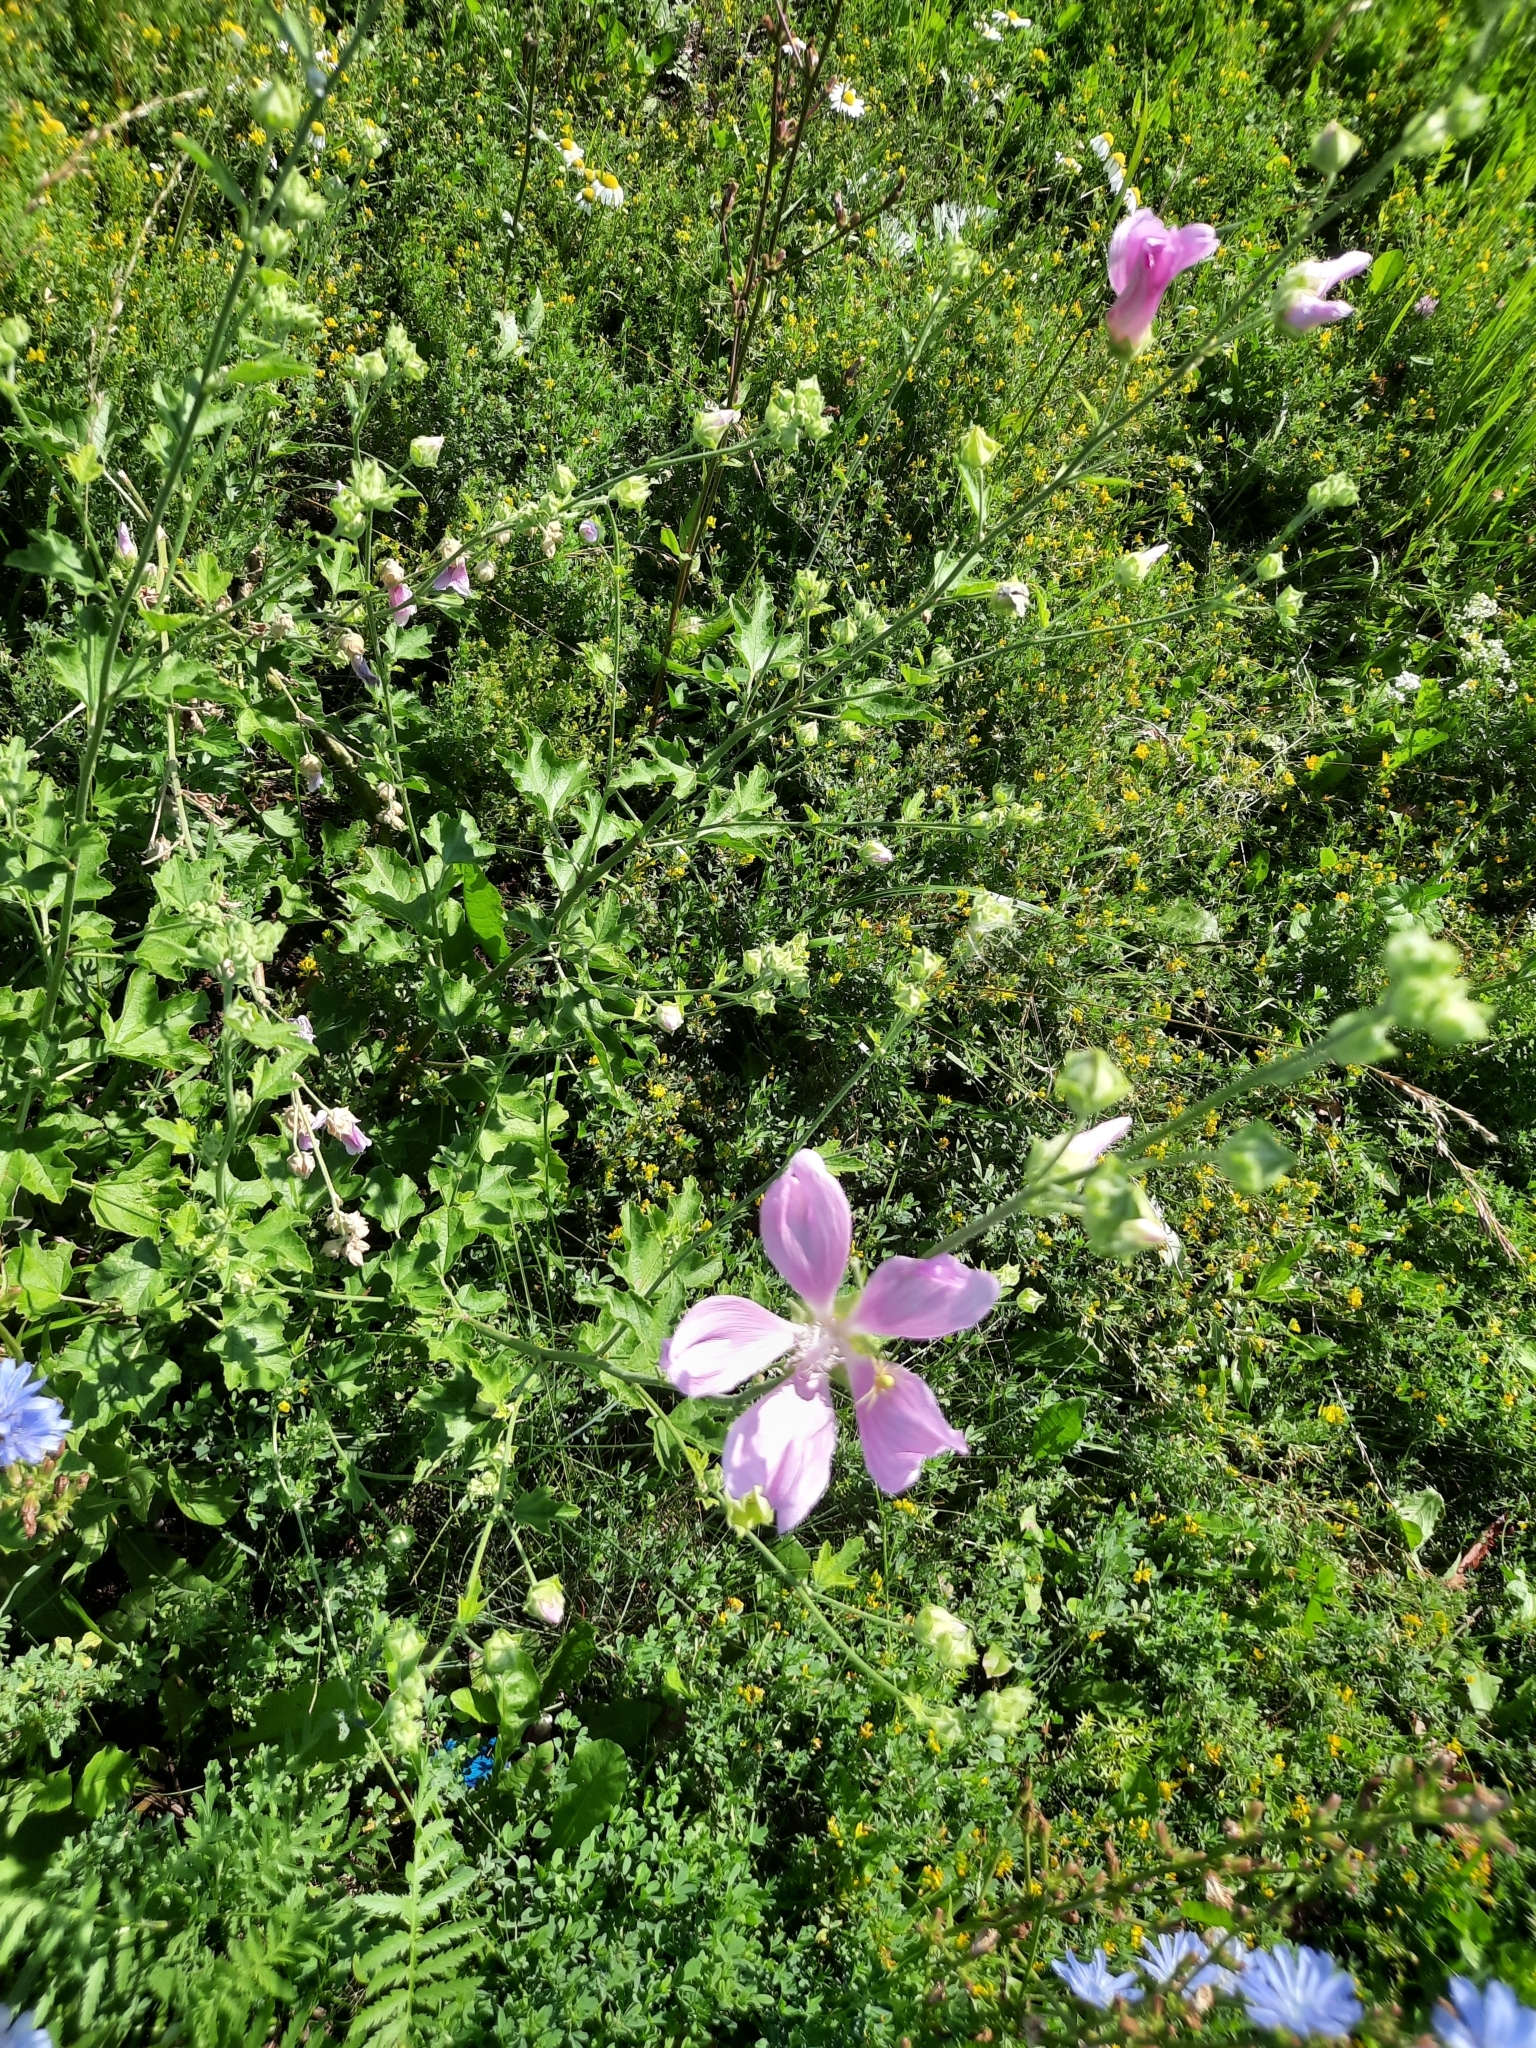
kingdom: Plantae
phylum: Tracheophyta
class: Magnoliopsida
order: Malvales
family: Malvaceae
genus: Malva
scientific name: Malva thuringiaca
